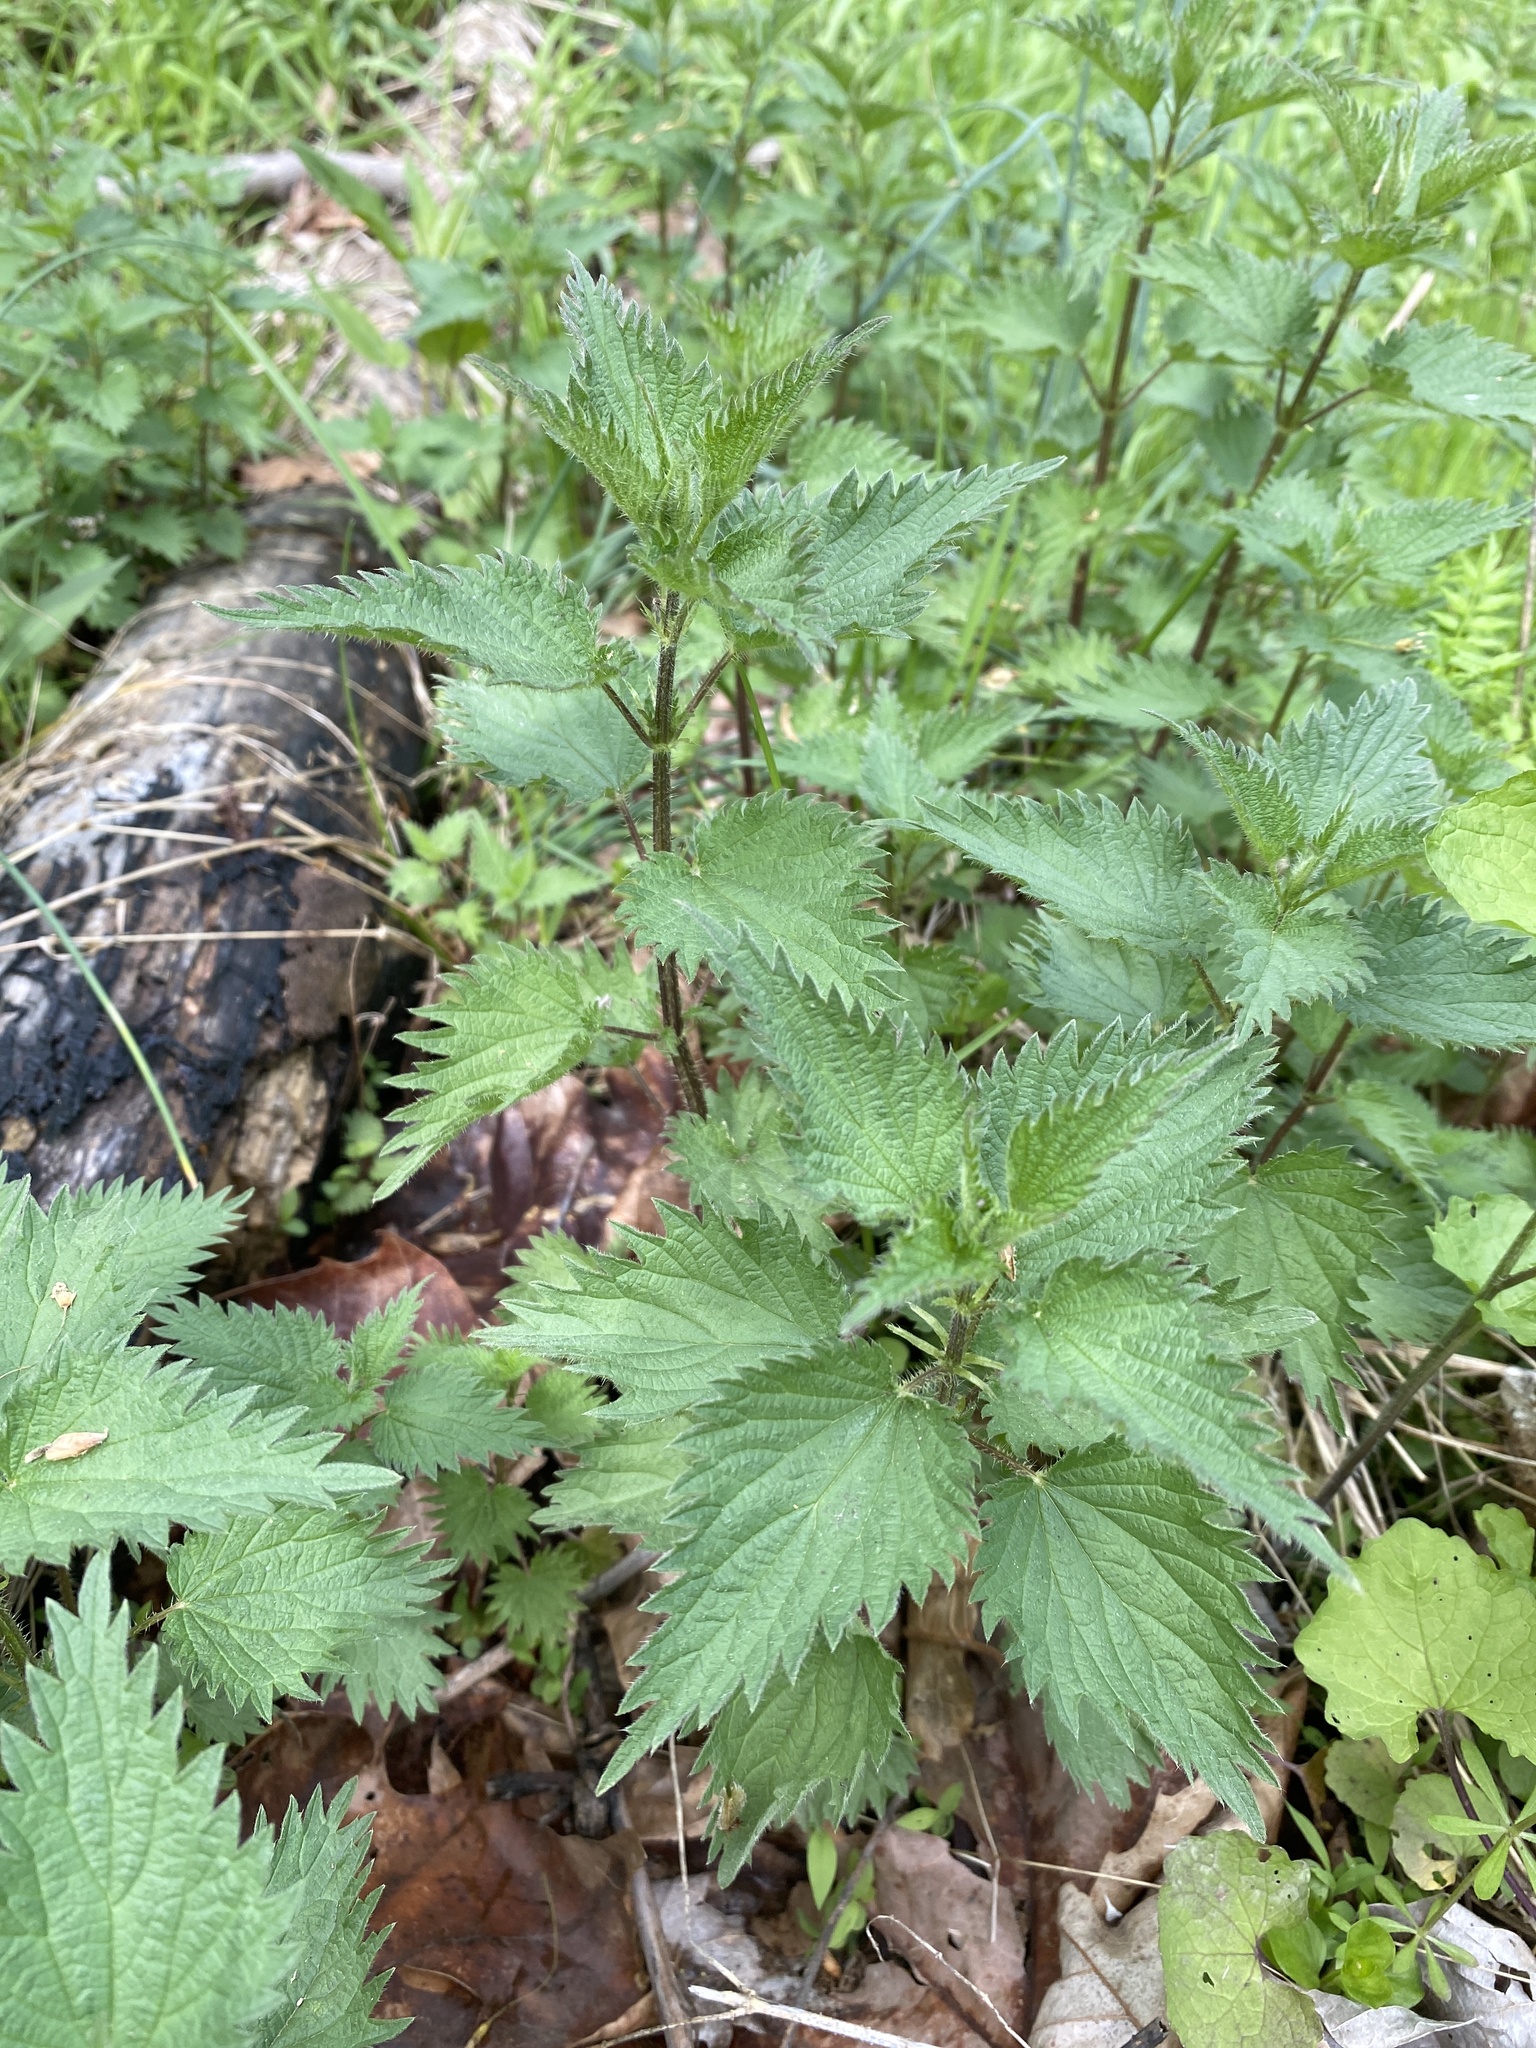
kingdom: Plantae
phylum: Tracheophyta
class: Magnoliopsida
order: Rosales
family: Urticaceae
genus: Urtica
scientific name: Urtica dioica
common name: Common nettle
